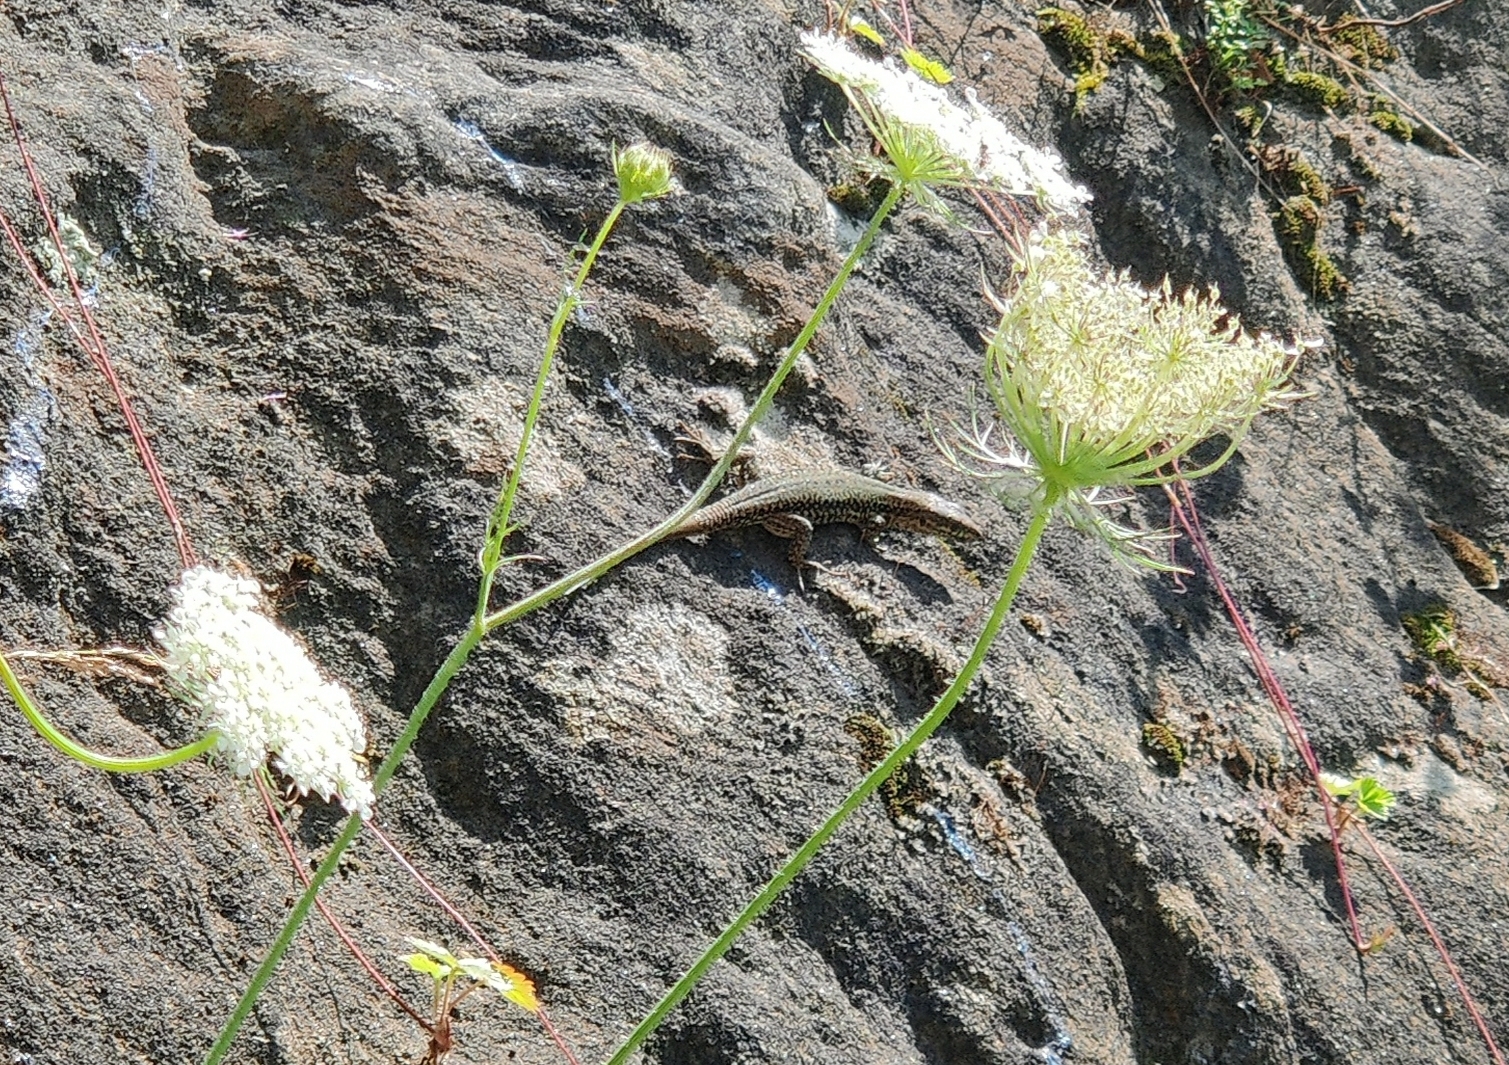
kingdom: Animalia
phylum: Chordata
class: Squamata
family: Lacertidae
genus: Podarcis
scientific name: Podarcis muralis
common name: Common wall lizard
